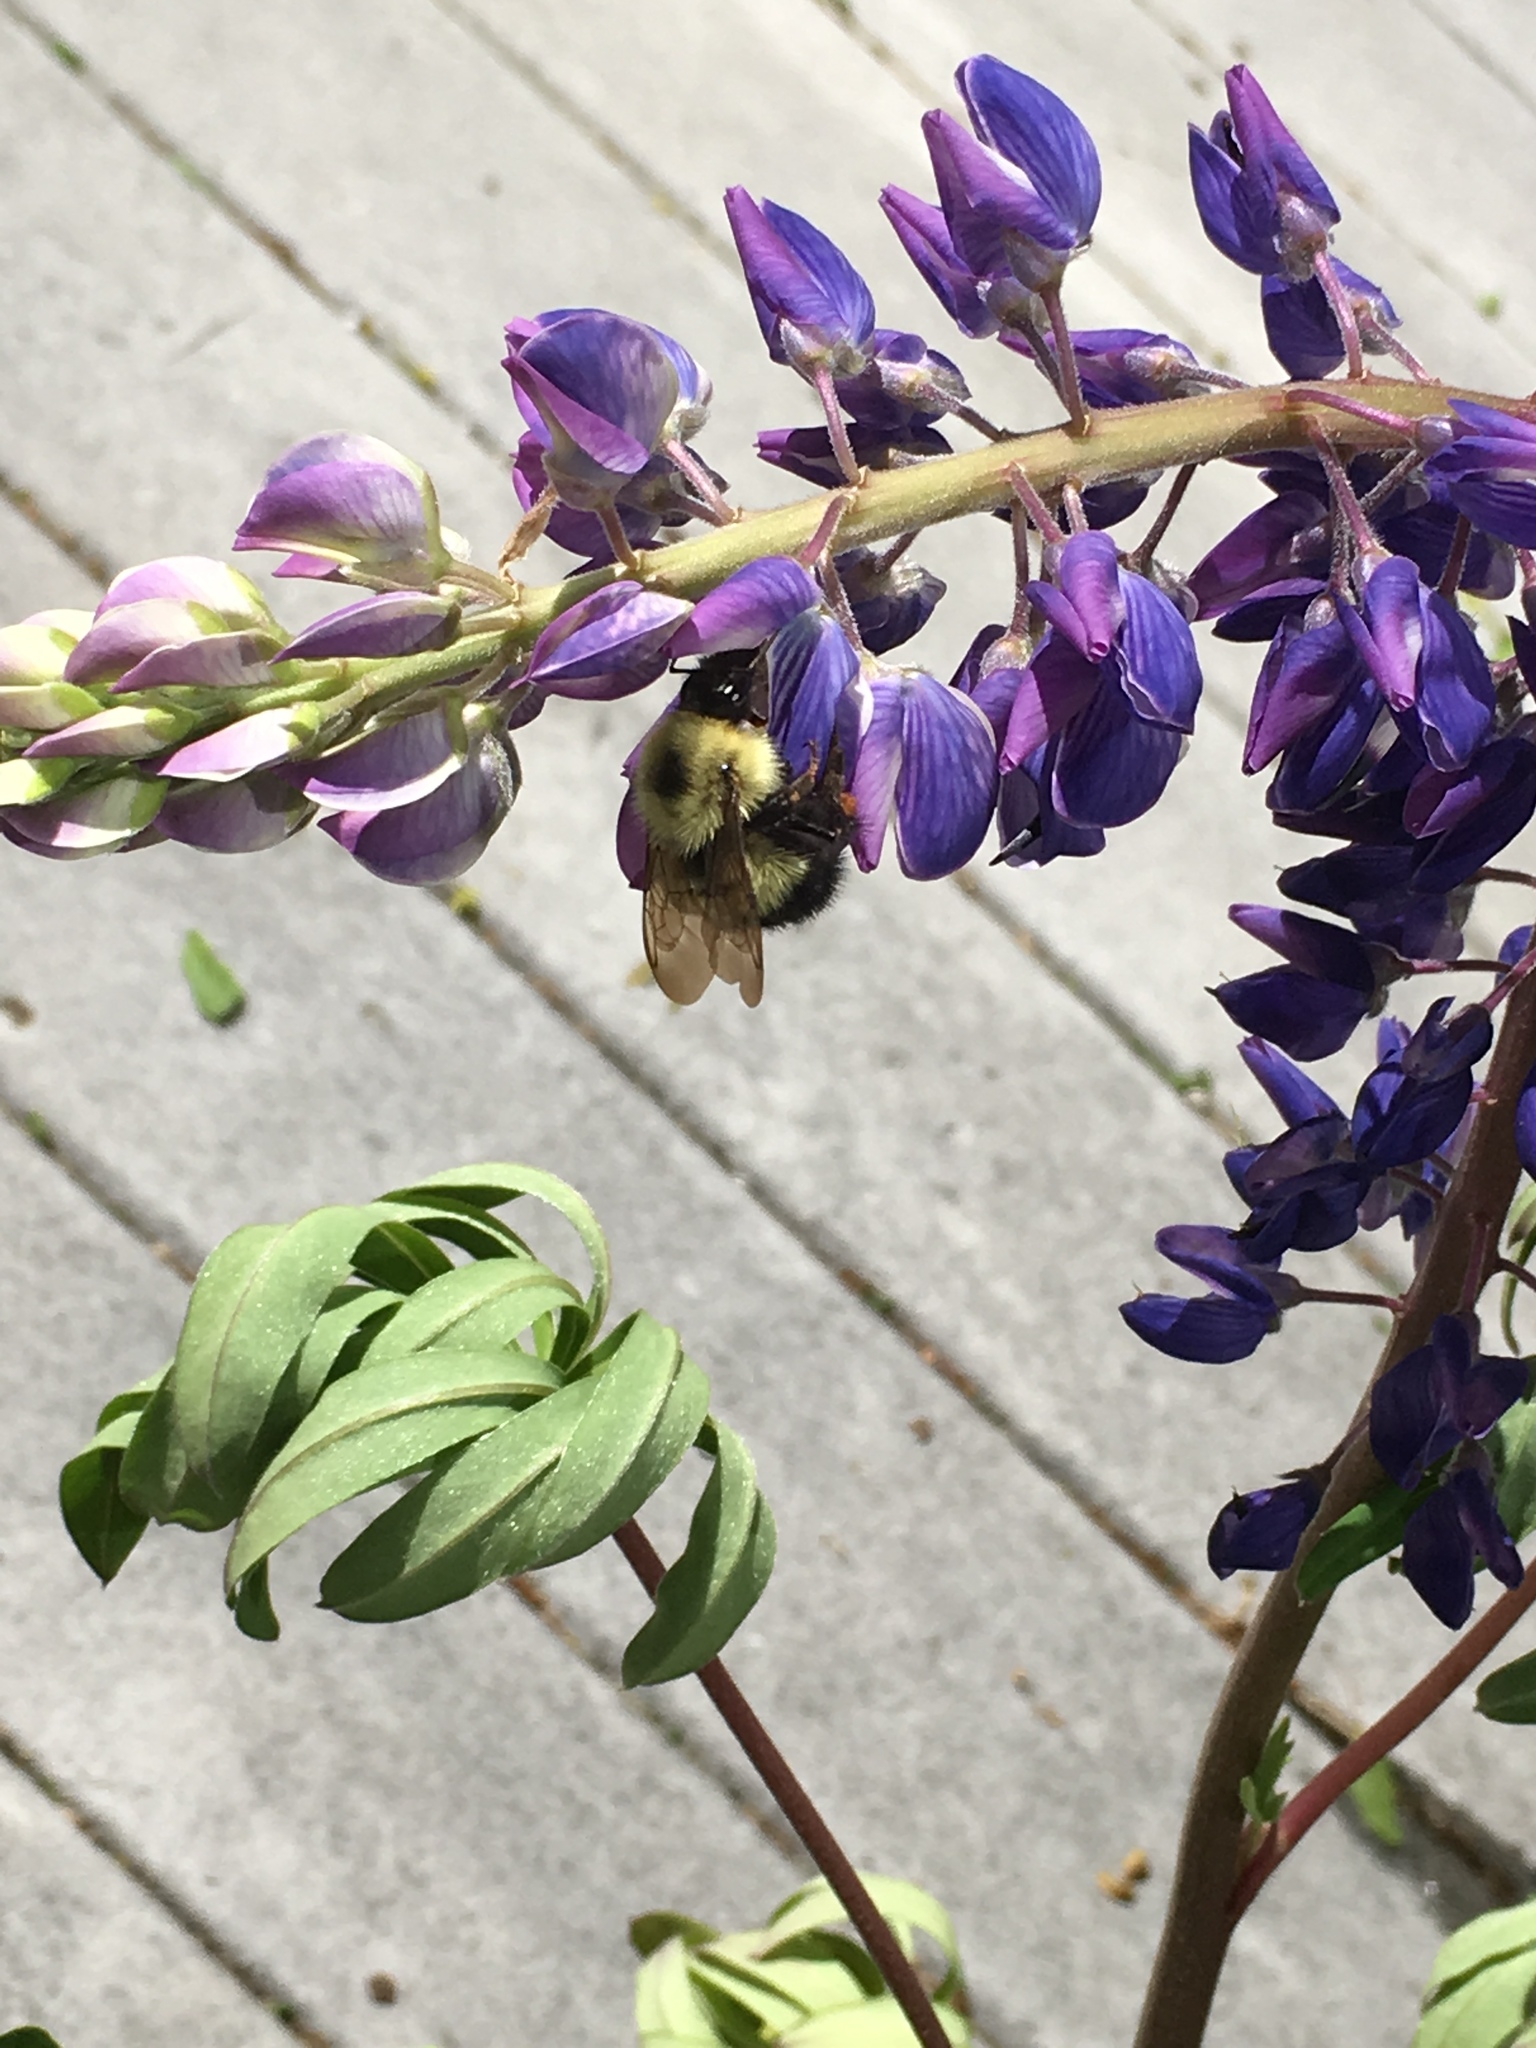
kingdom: Animalia
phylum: Arthropoda
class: Insecta
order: Hymenoptera
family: Apidae
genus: Pyrobombus
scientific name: Pyrobombus
